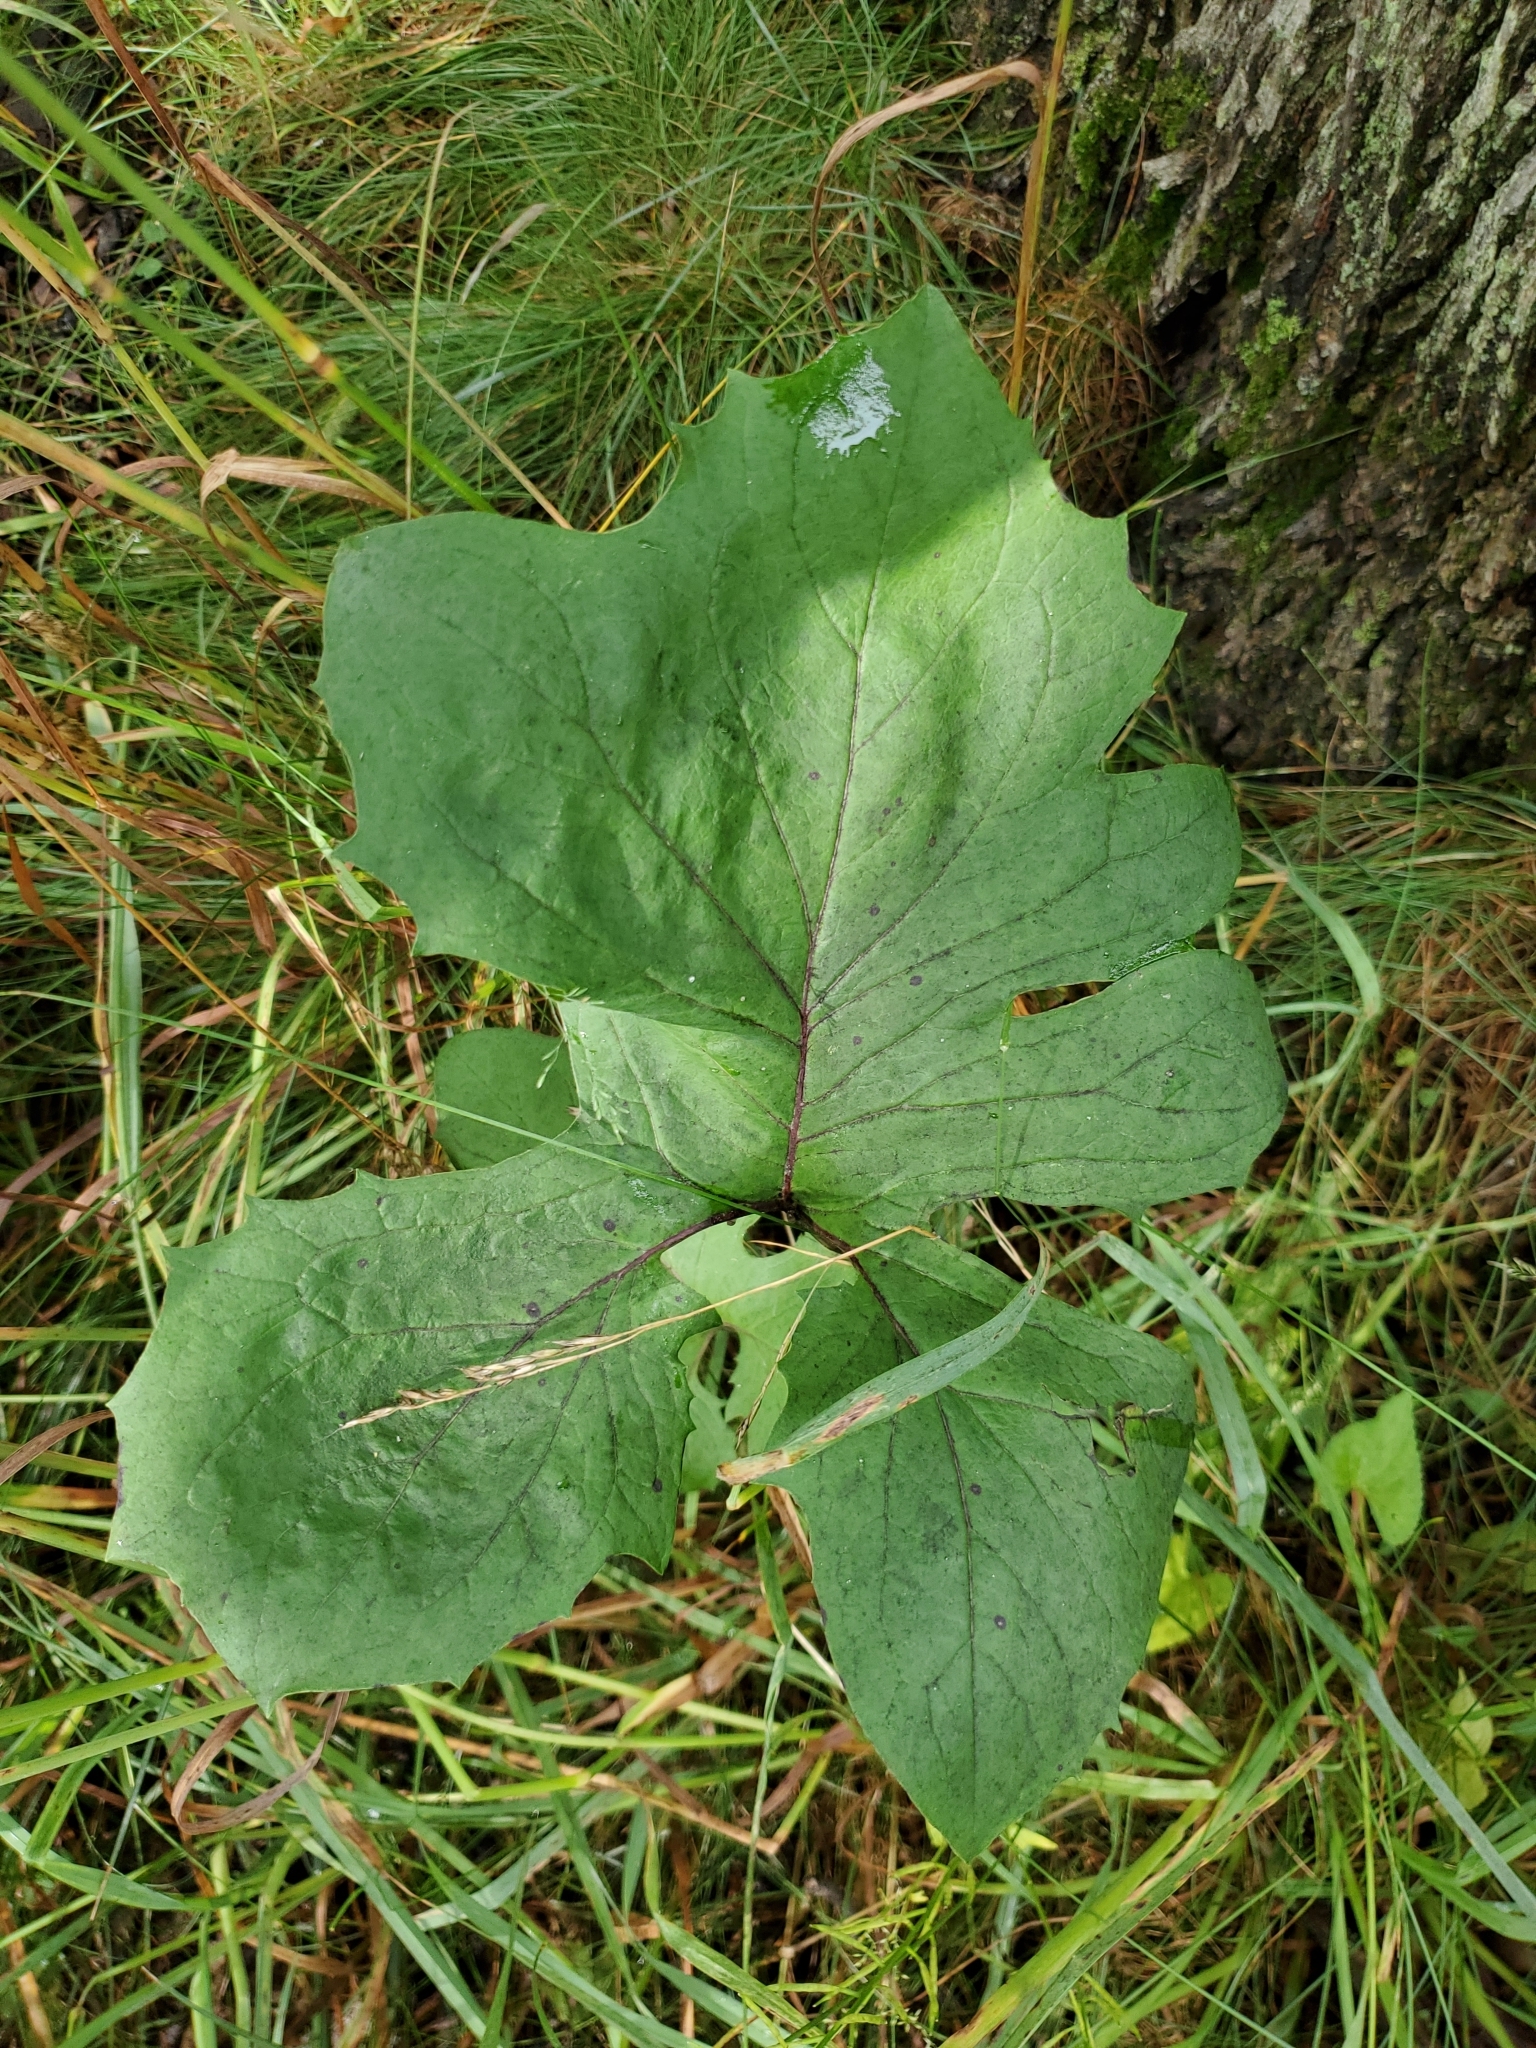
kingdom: Plantae
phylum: Tracheophyta
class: Magnoliopsida
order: Asterales
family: Asteraceae
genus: Nabalus
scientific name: Nabalus albus
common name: White rattlesnakeroot
